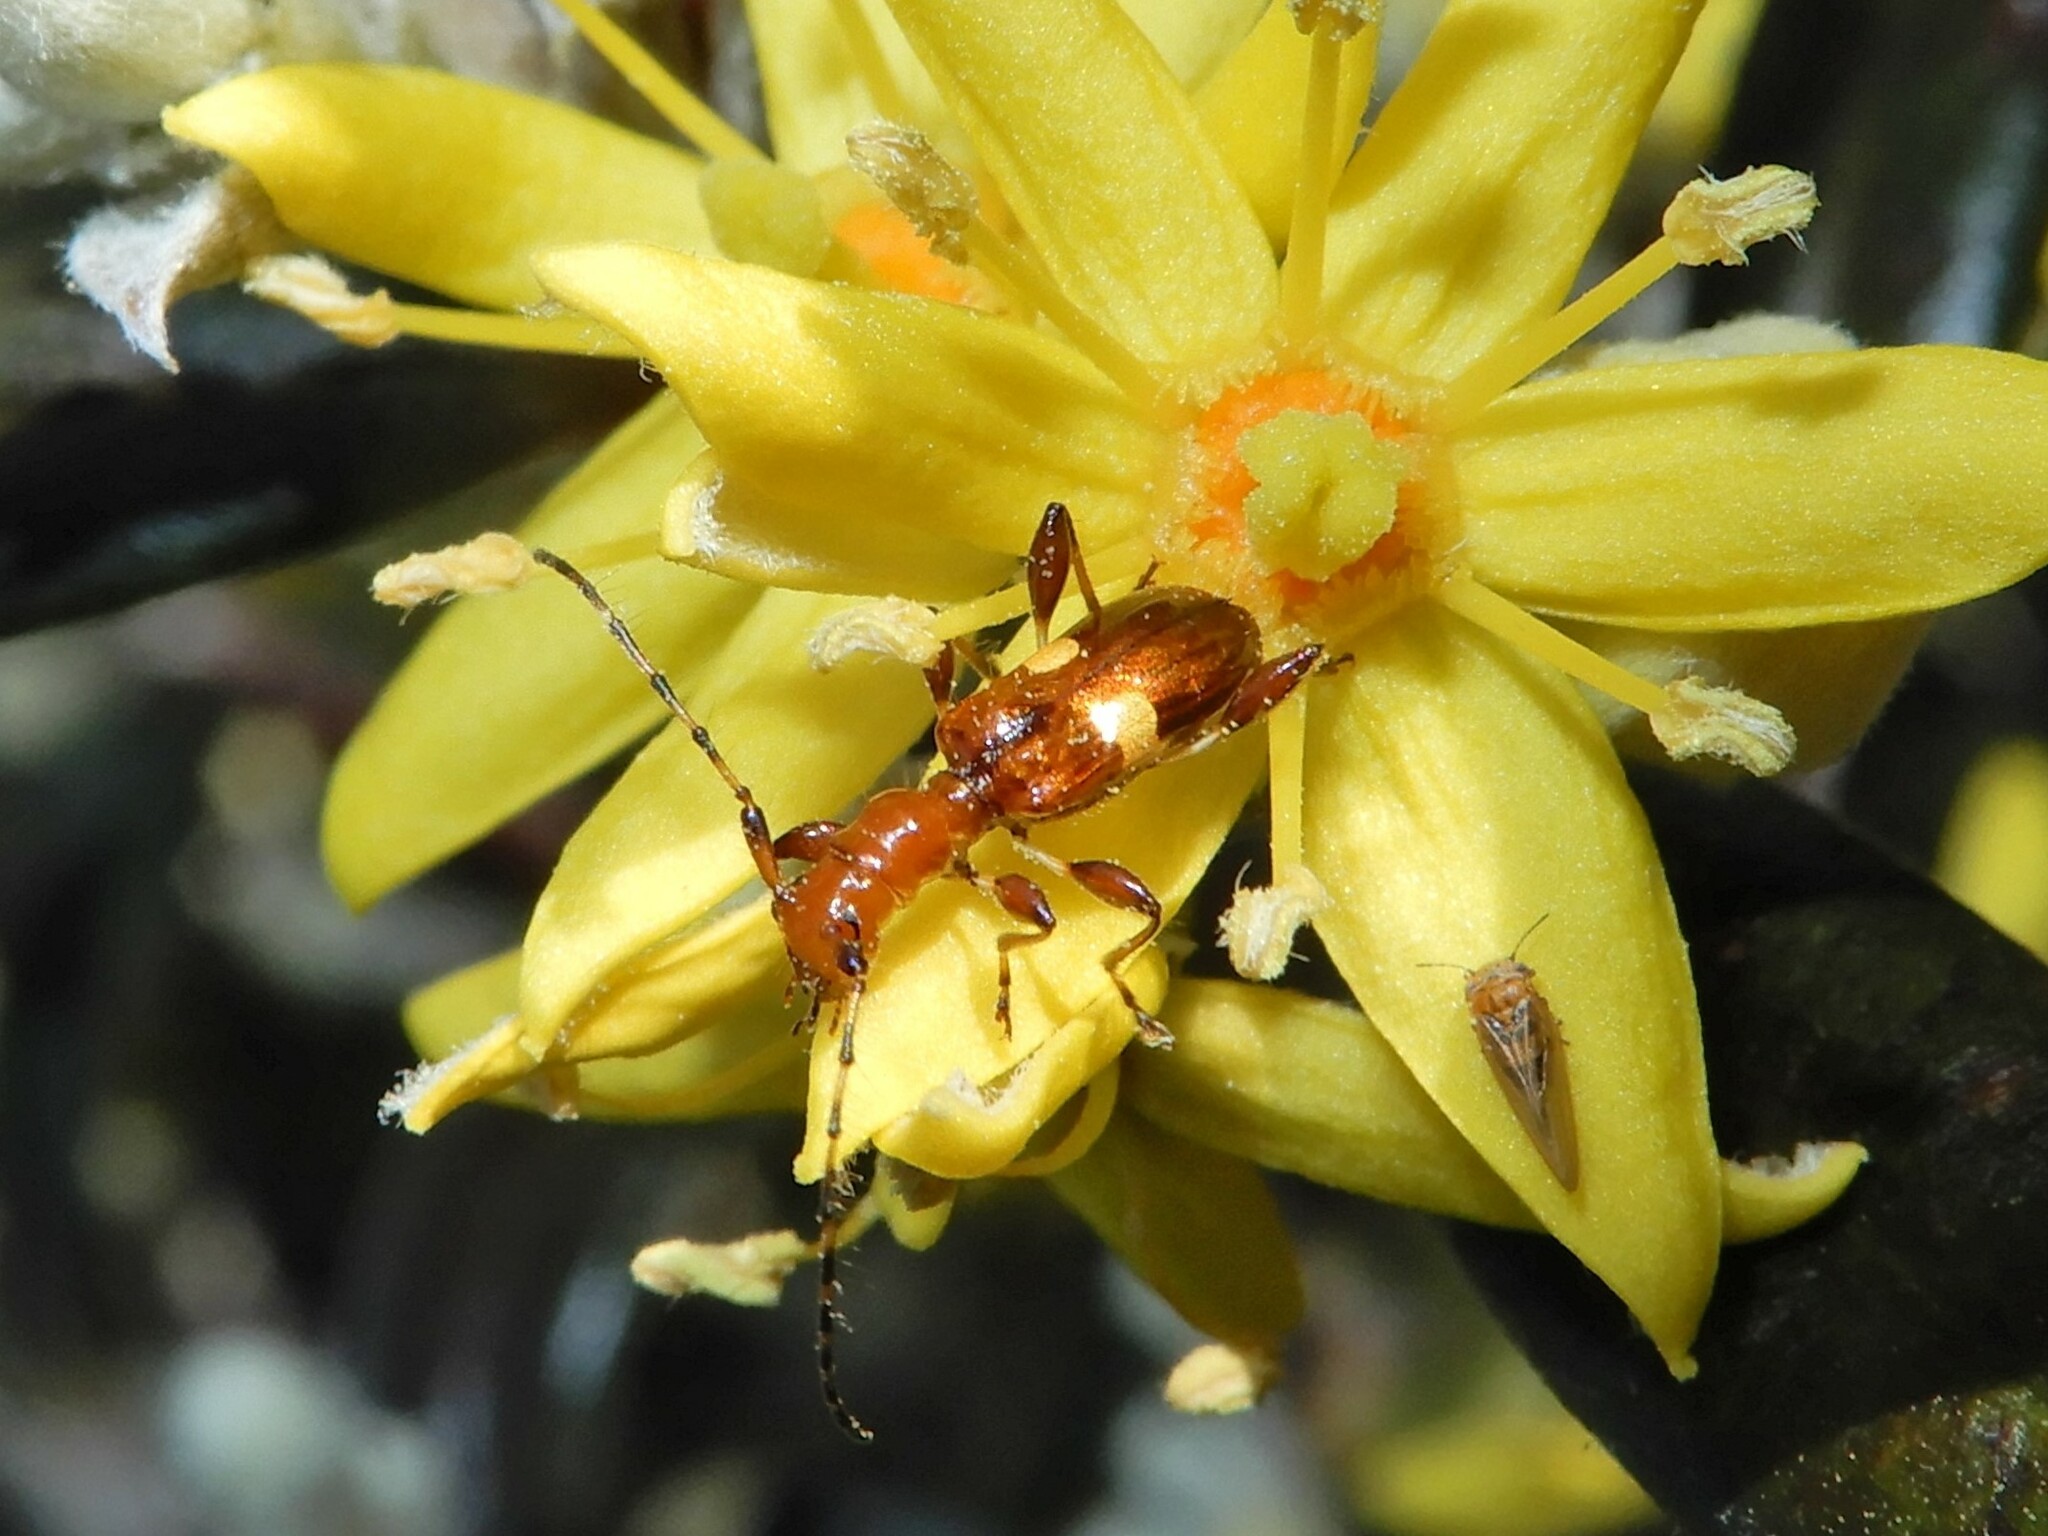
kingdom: Animalia
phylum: Arthropoda
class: Insecta
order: Coleoptera
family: Cerambycidae
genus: Zorion
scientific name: Zorion guttigerum
